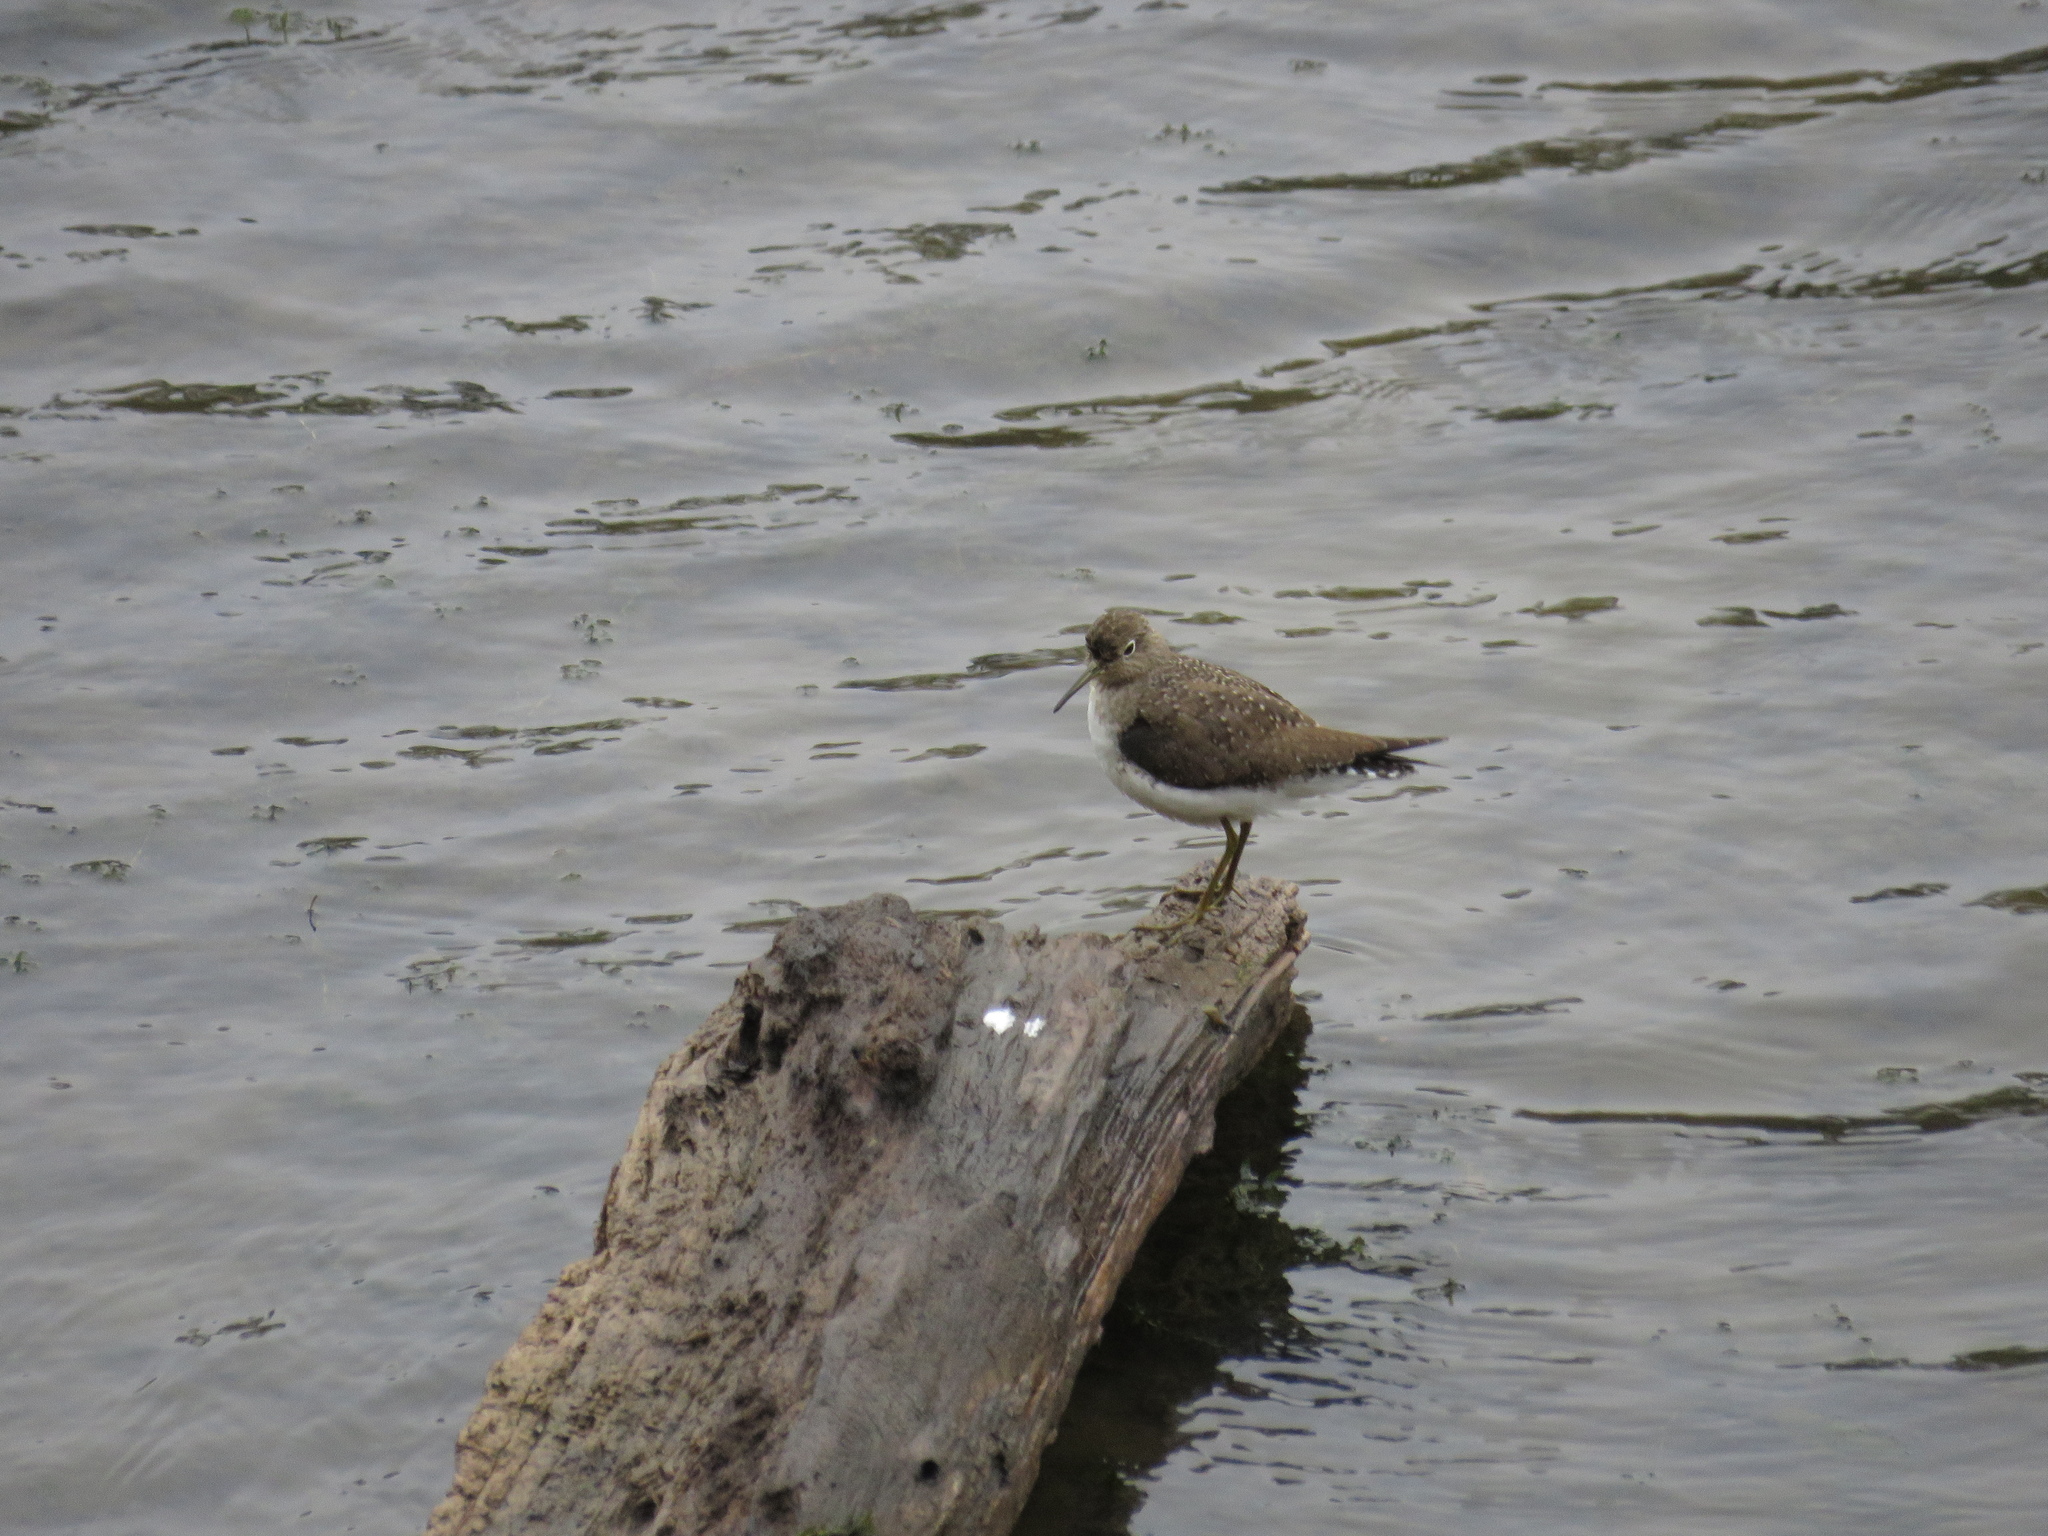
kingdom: Animalia
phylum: Chordata
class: Aves
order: Charadriiformes
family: Scolopacidae
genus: Tringa
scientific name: Tringa solitaria
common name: Solitary sandpiper
